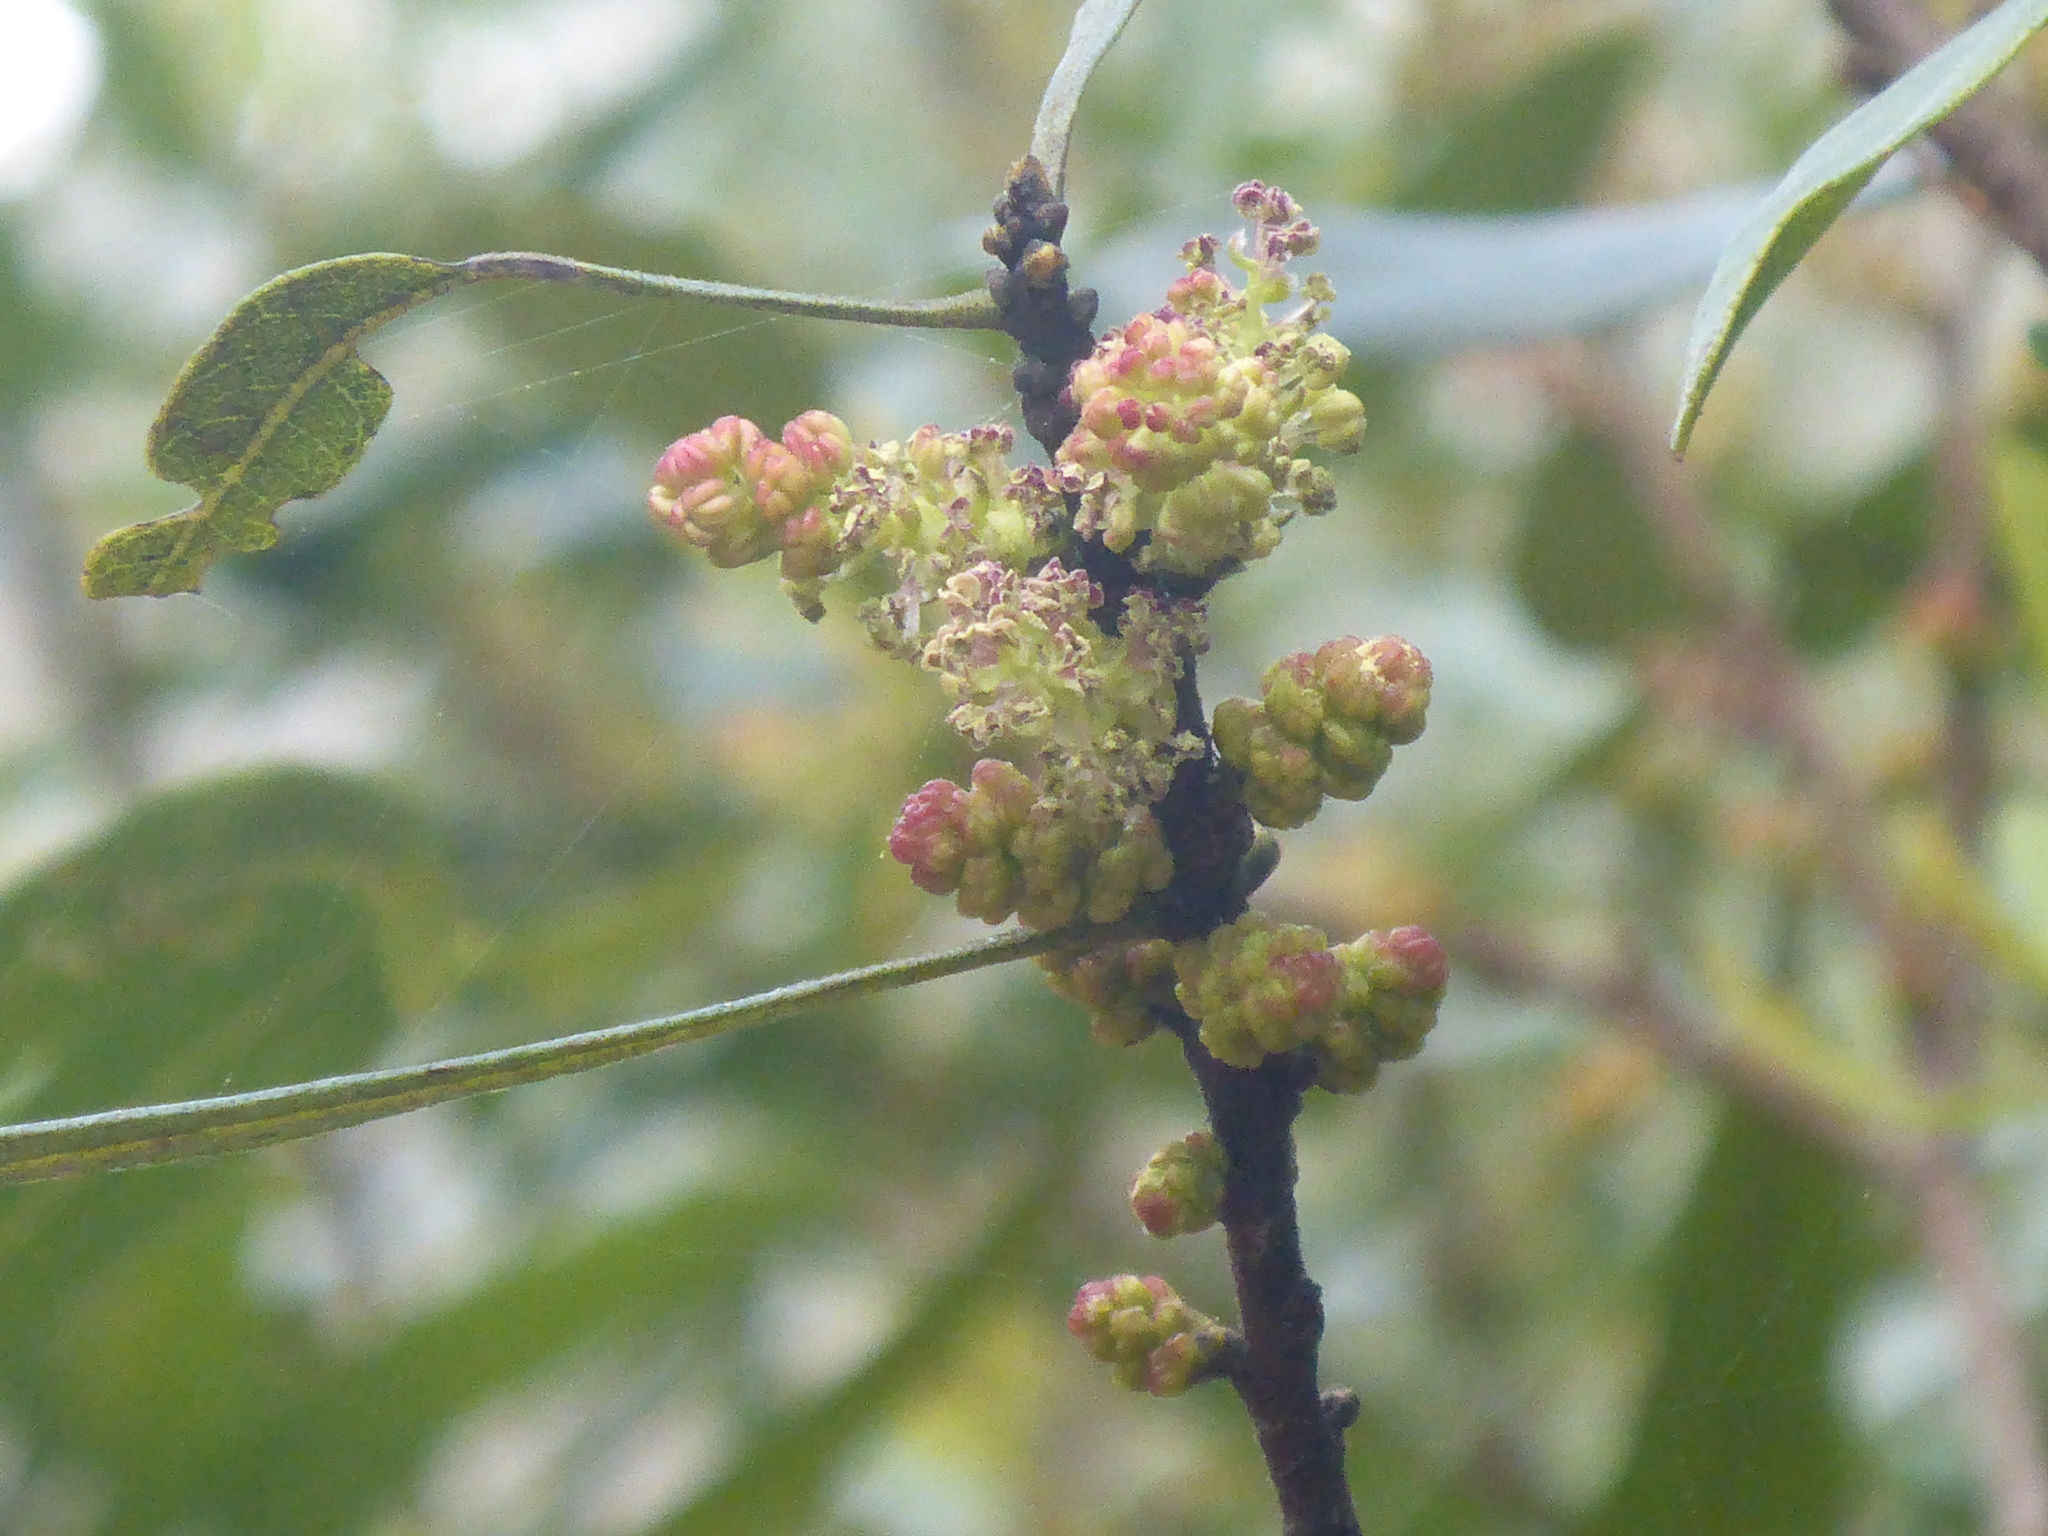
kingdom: Plantae
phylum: Tracheophyta
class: Magnoliopsida
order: Fagales
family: Myricaceae
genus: Morella
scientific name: Morella cerifera
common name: Wax myrtle
